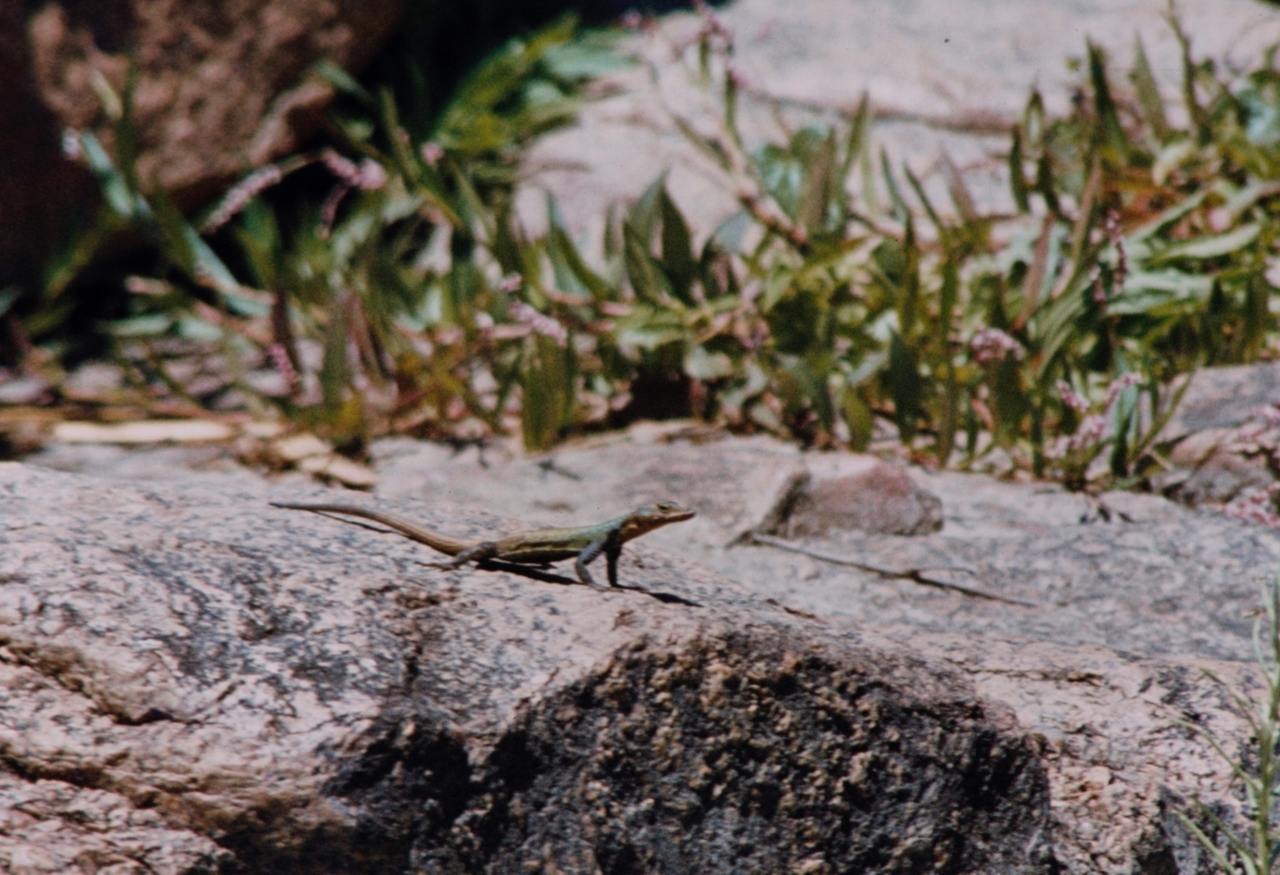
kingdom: Animalia
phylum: Chordata
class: Squamata
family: Cordylidae
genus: Platysaurus
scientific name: Platysaurus intermedius
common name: Common flat lizard
